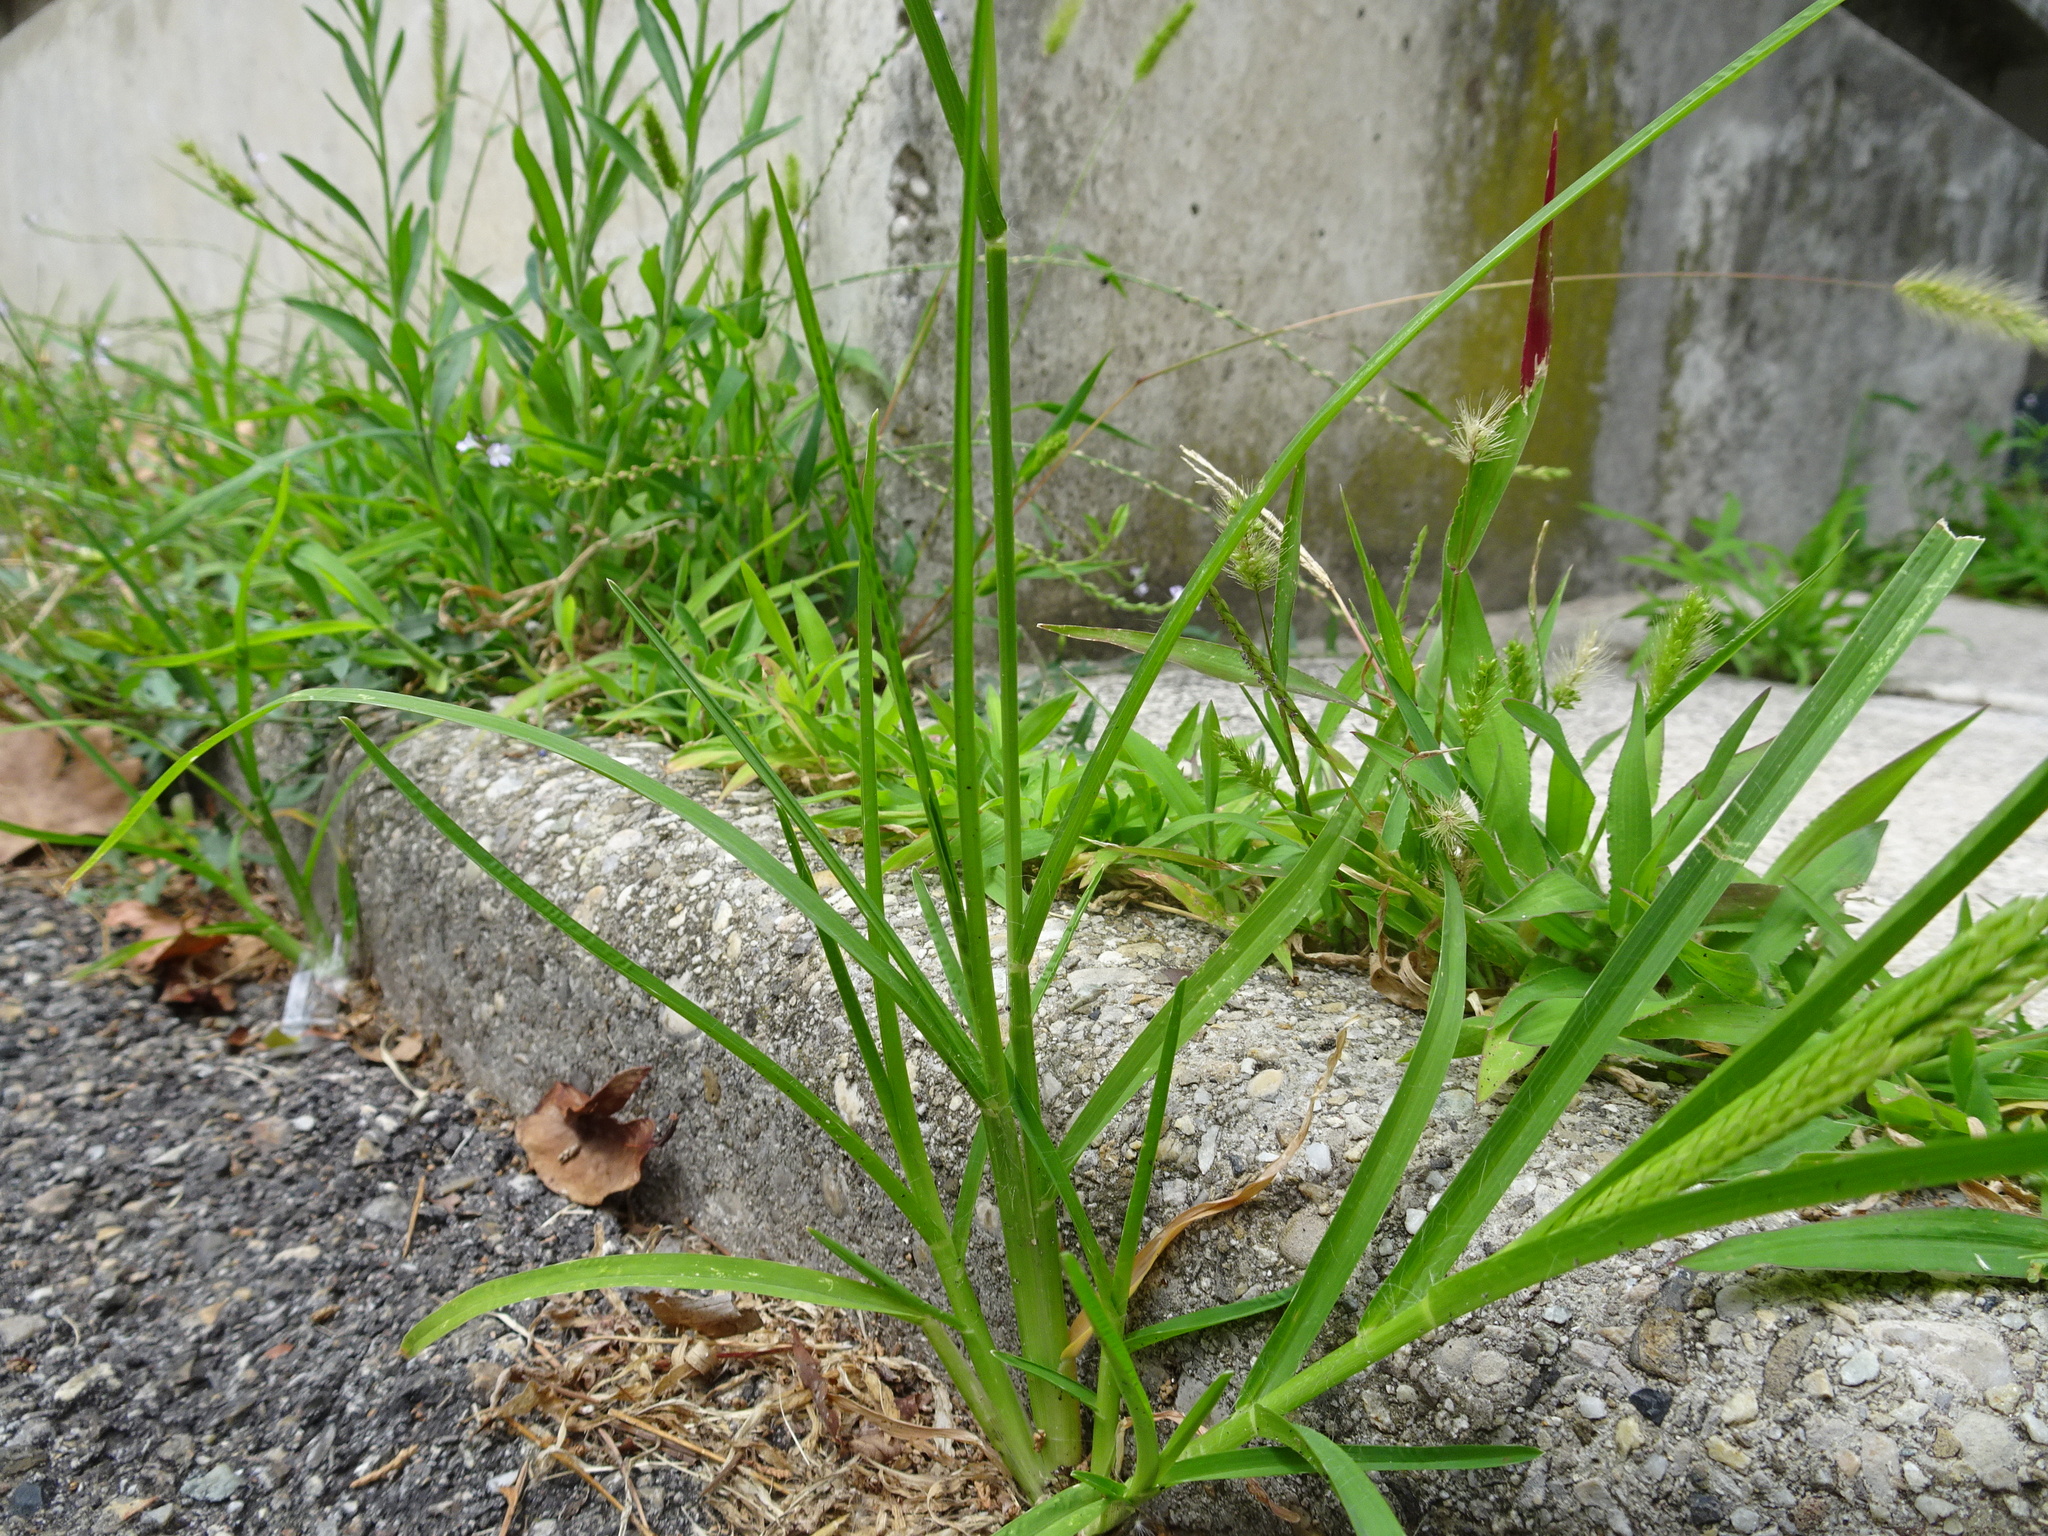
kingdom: Plantae
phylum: Tracheophyta
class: Liliopsida
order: Poales
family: Poaceae
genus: Eleusine
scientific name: Eleusine indica
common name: Yard-grass
